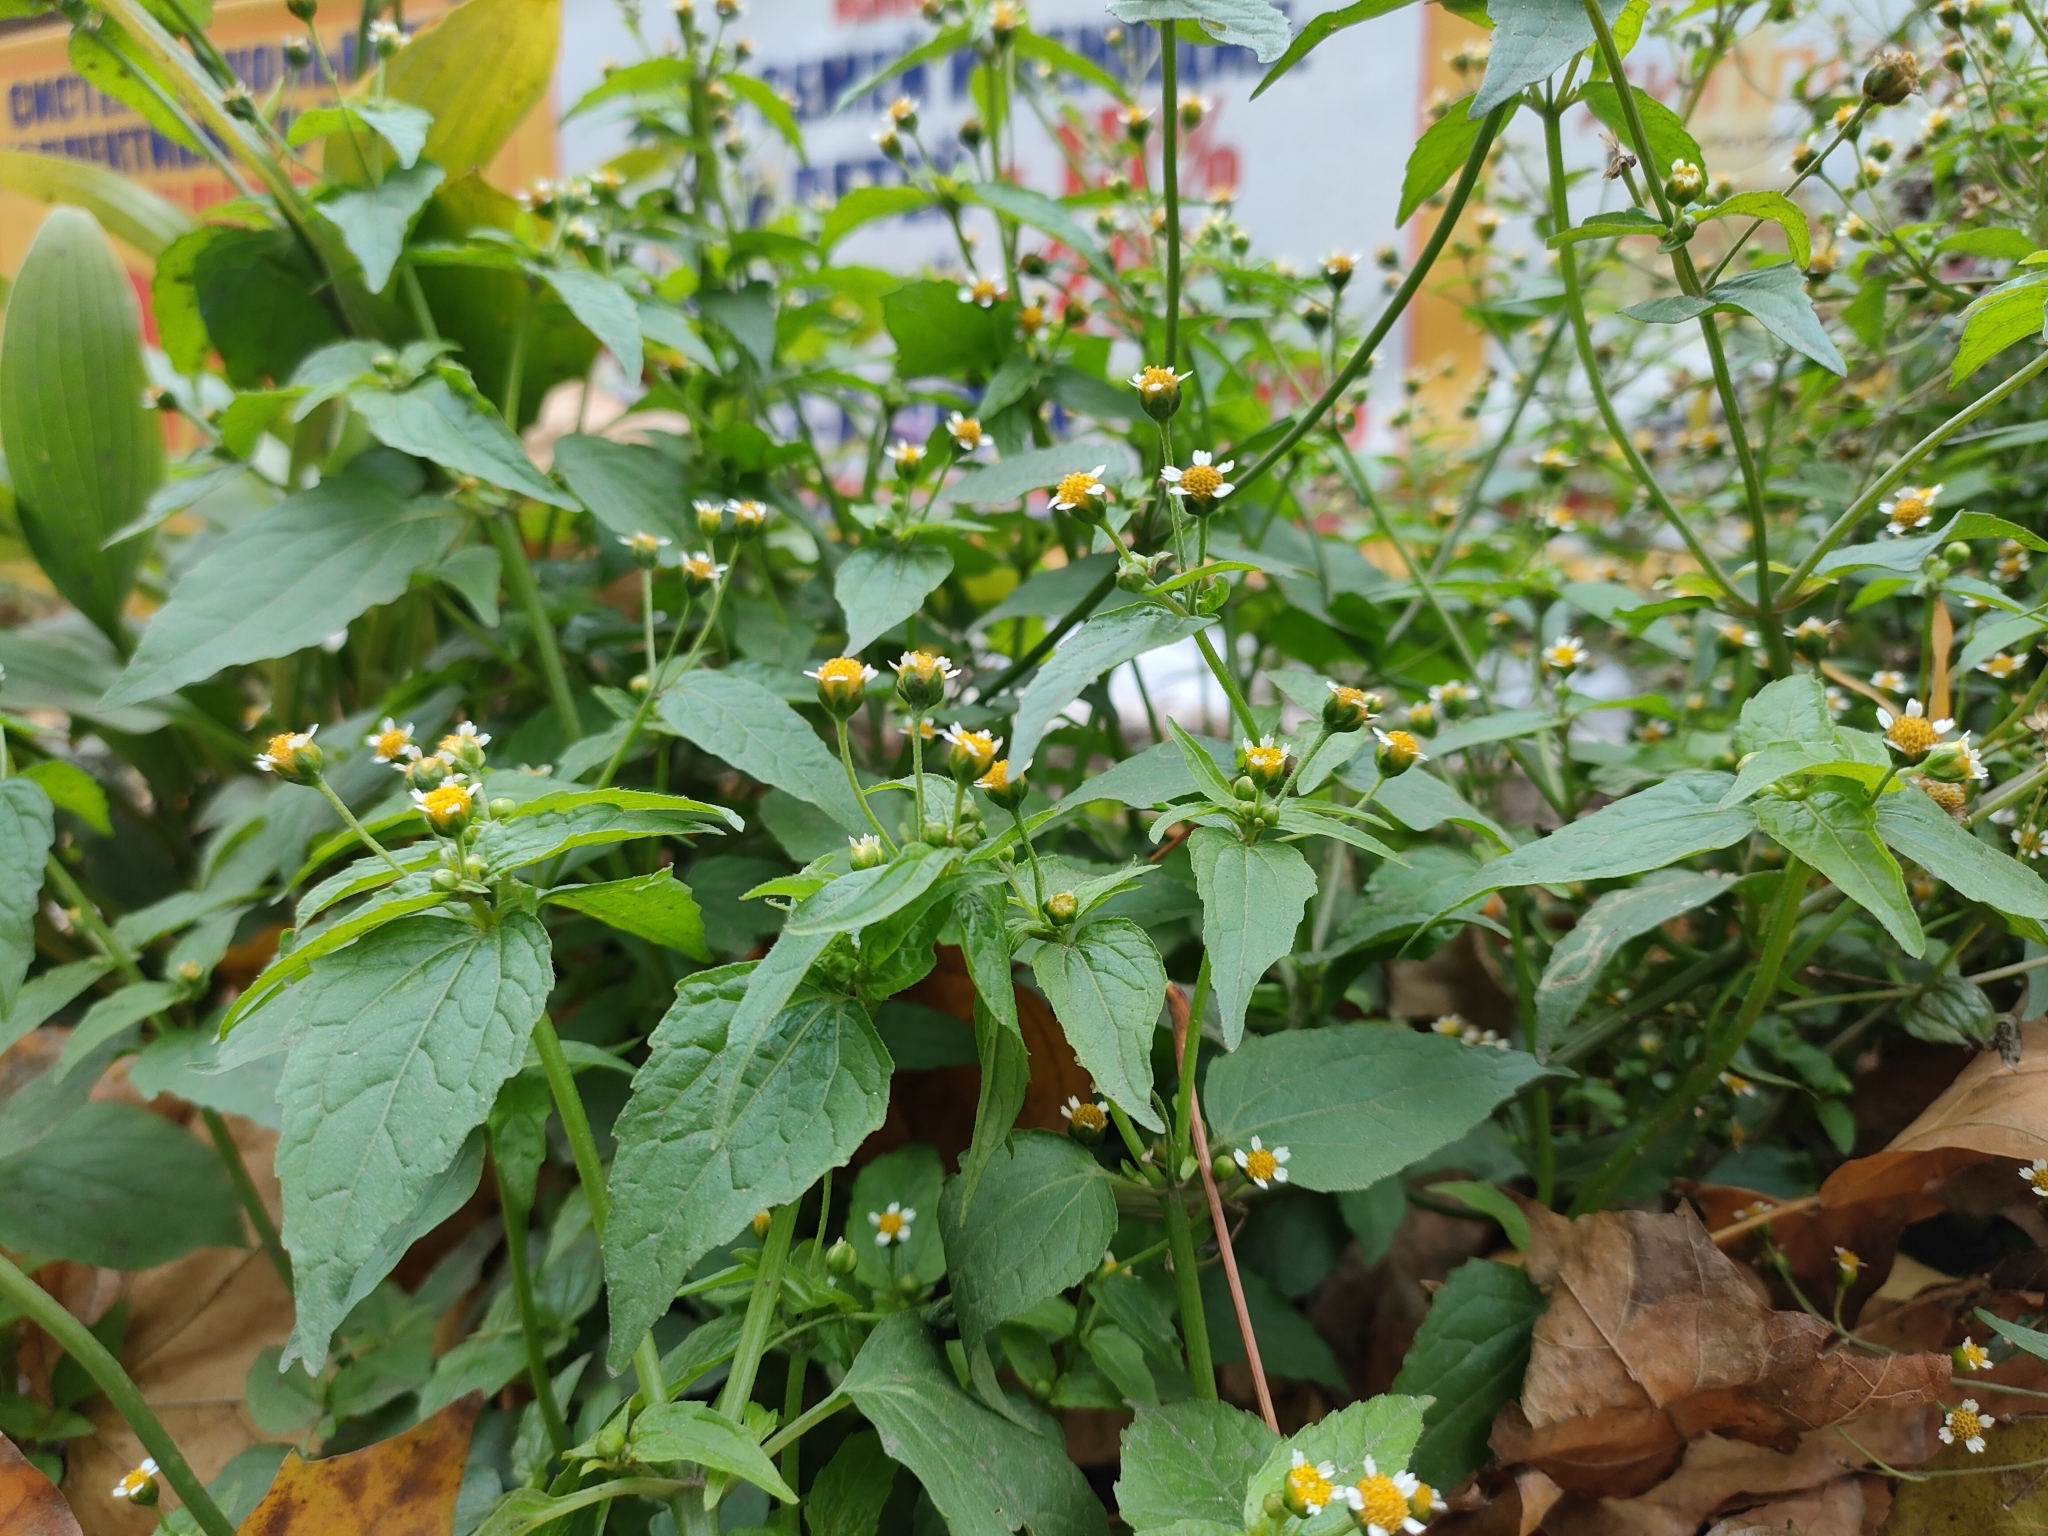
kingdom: Plantae
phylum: Tracheophyta
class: Magnoliopsida
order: Asterales
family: Asteraceae
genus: Galinsoga
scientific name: Galinsoga parviflora
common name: Gallant soldier
